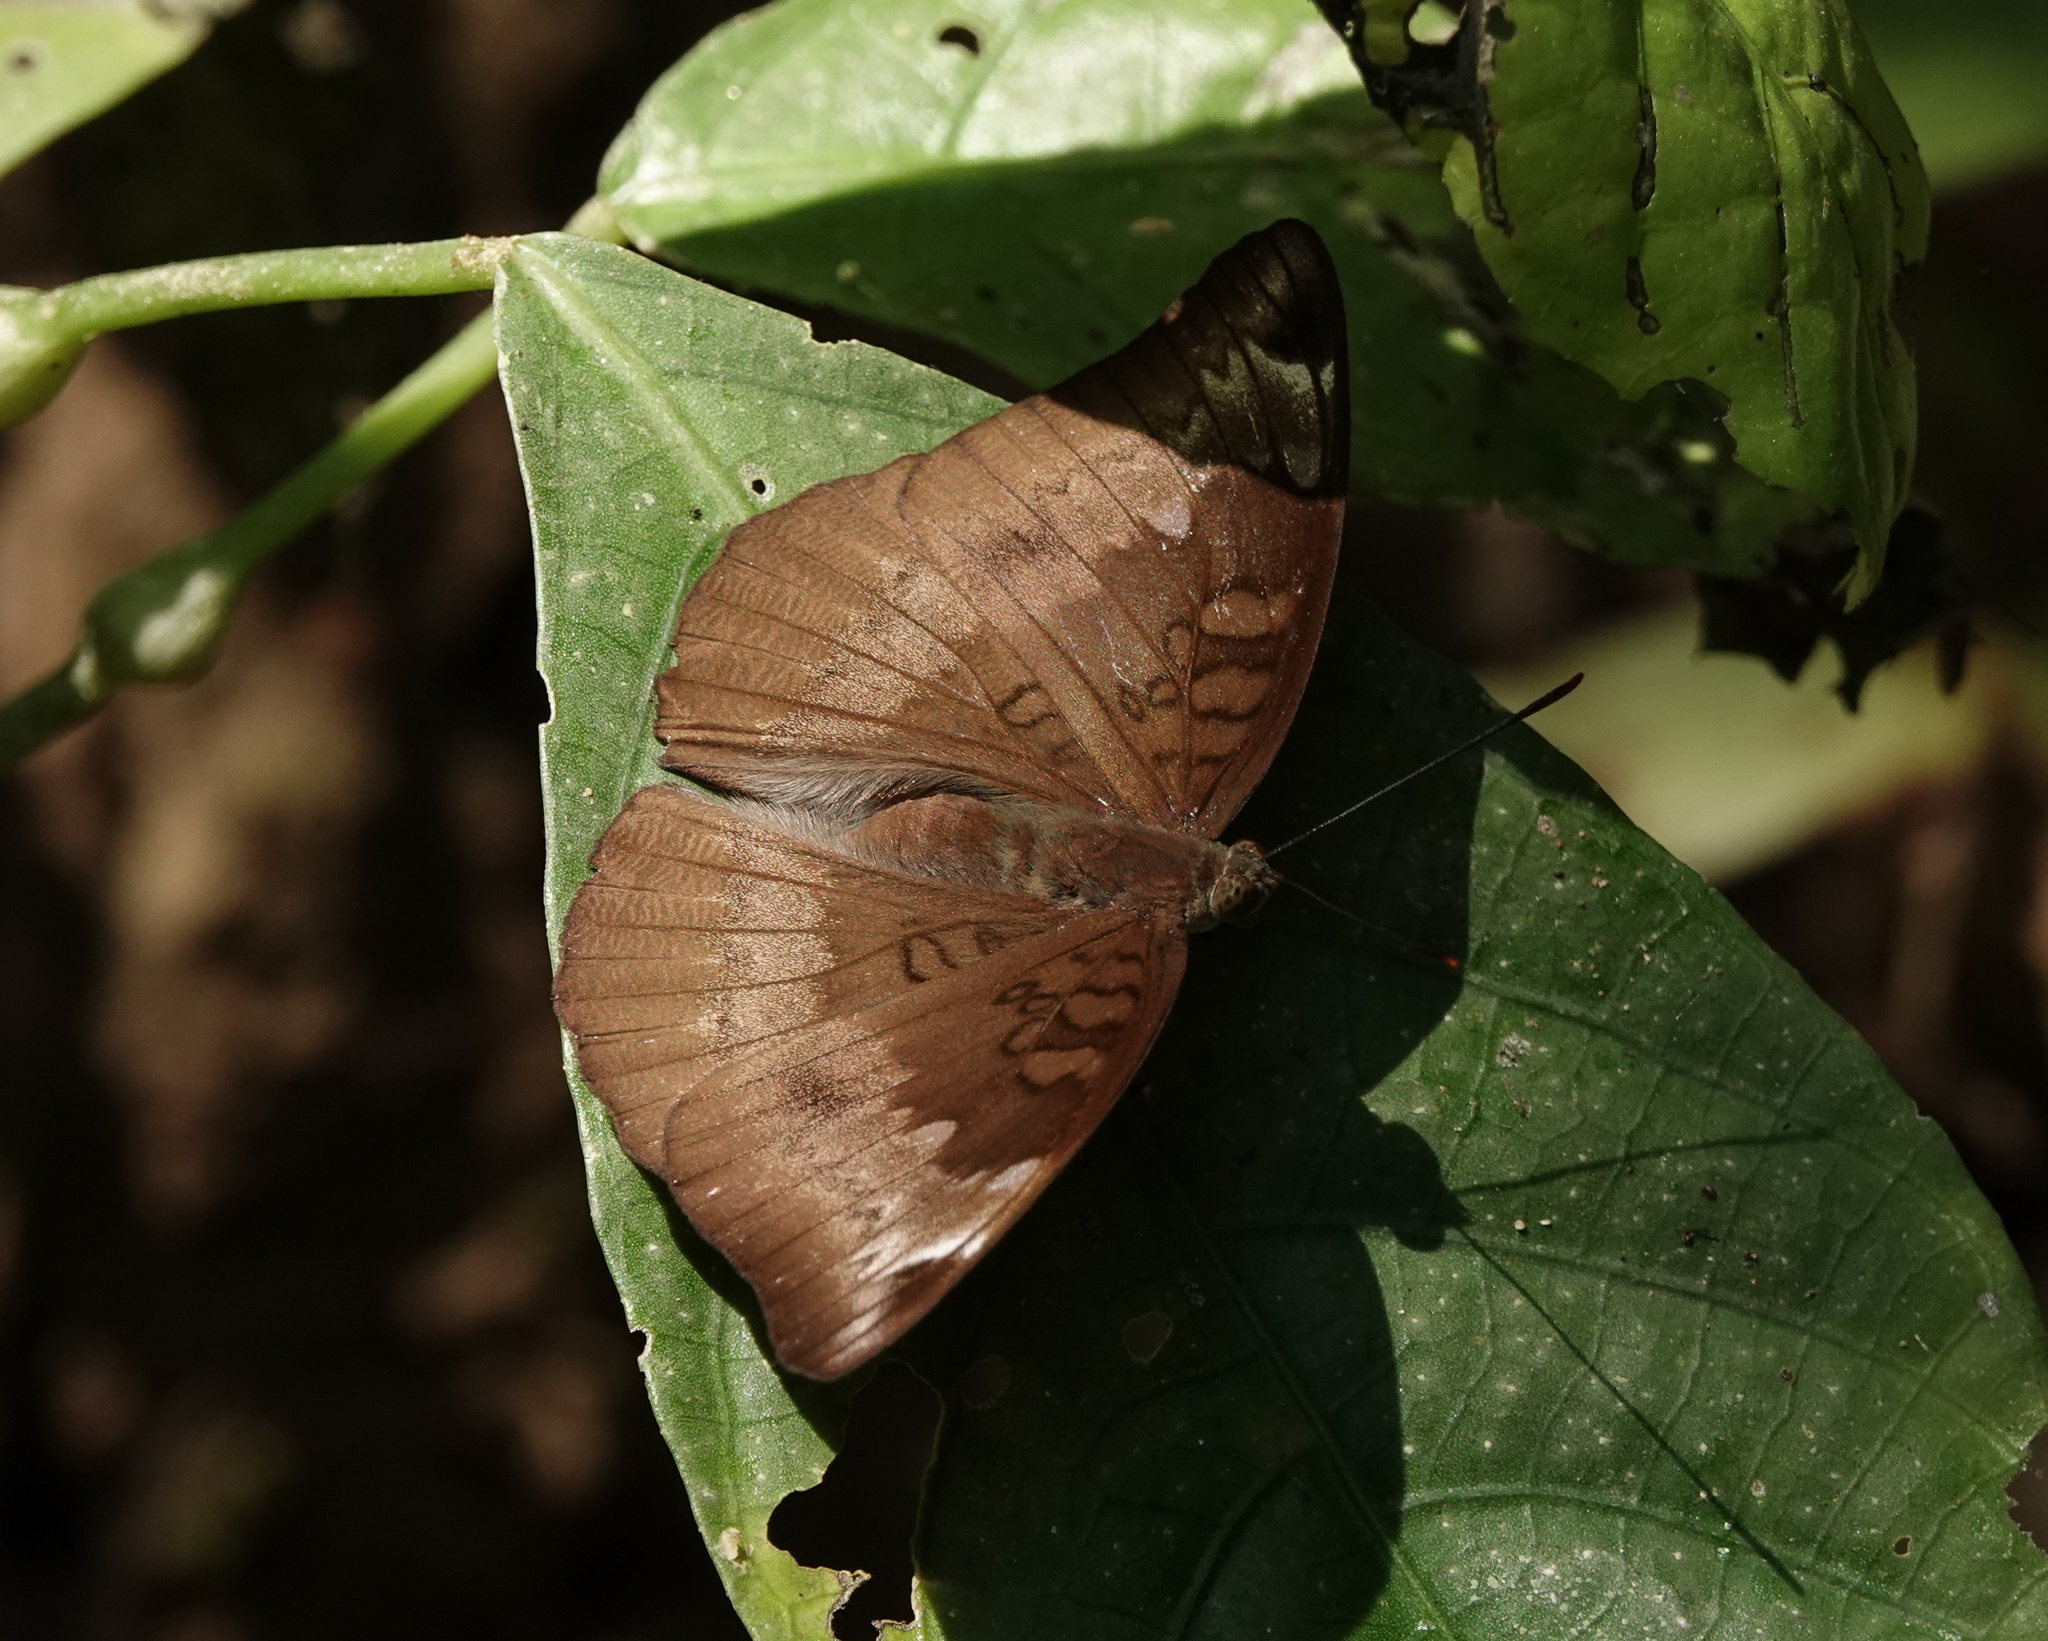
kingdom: Animalia
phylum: Arthropoda
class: Insecta
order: Lepidoptera
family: Nymphalidae
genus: Euthalia
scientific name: Euthalia aconthea
